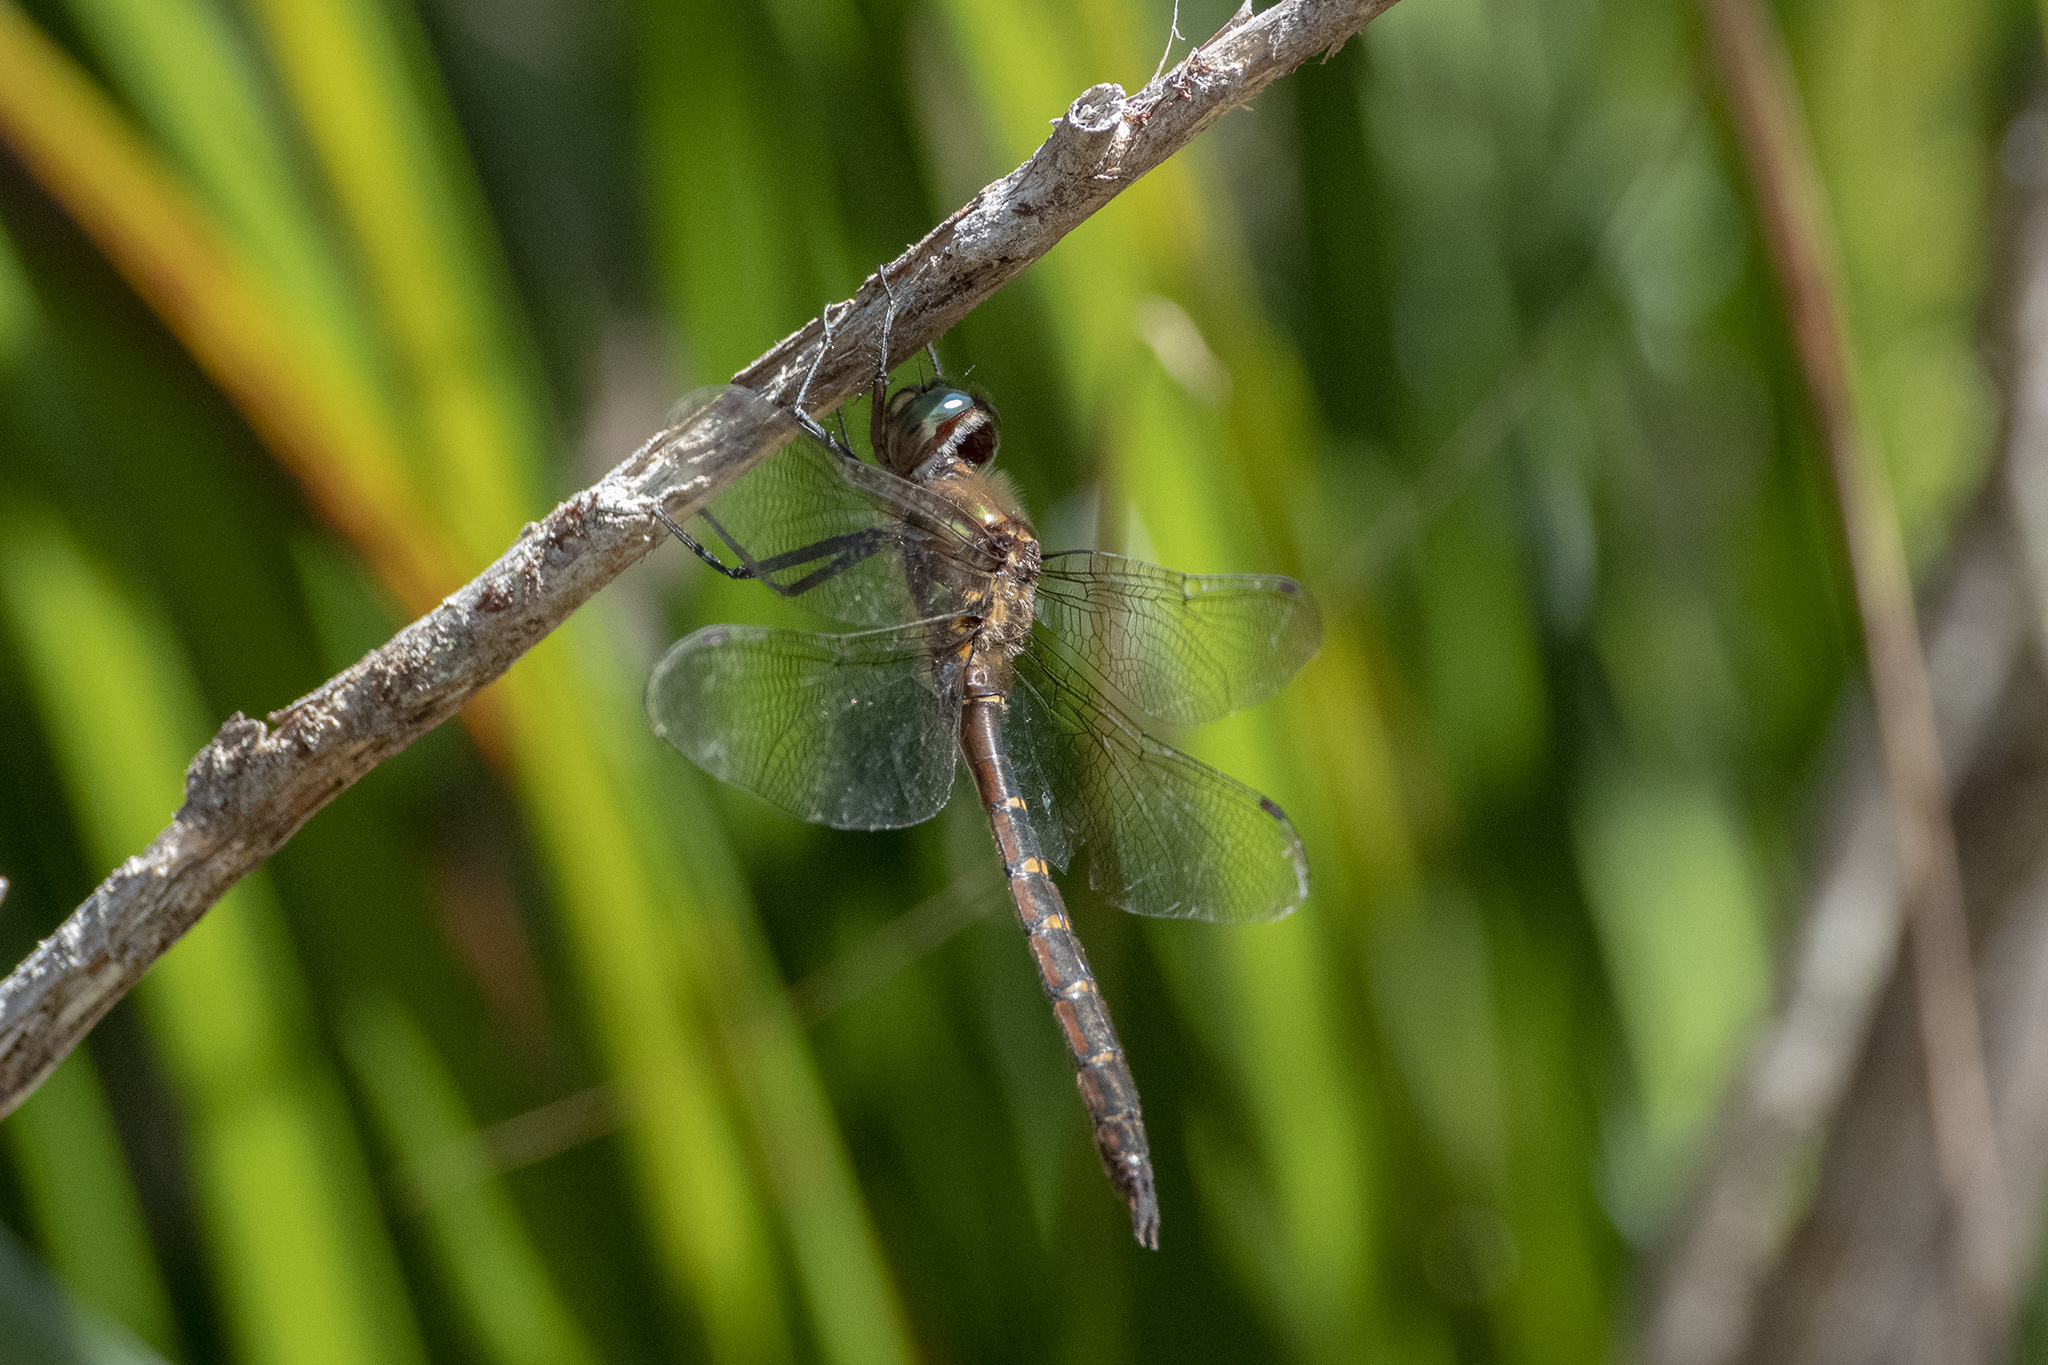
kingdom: Animalia
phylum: Arthropoda
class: Insecta
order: Odonata
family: Corduliidae
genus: Procordulia
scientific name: Procordulia smithii
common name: Ranger dragonfly
